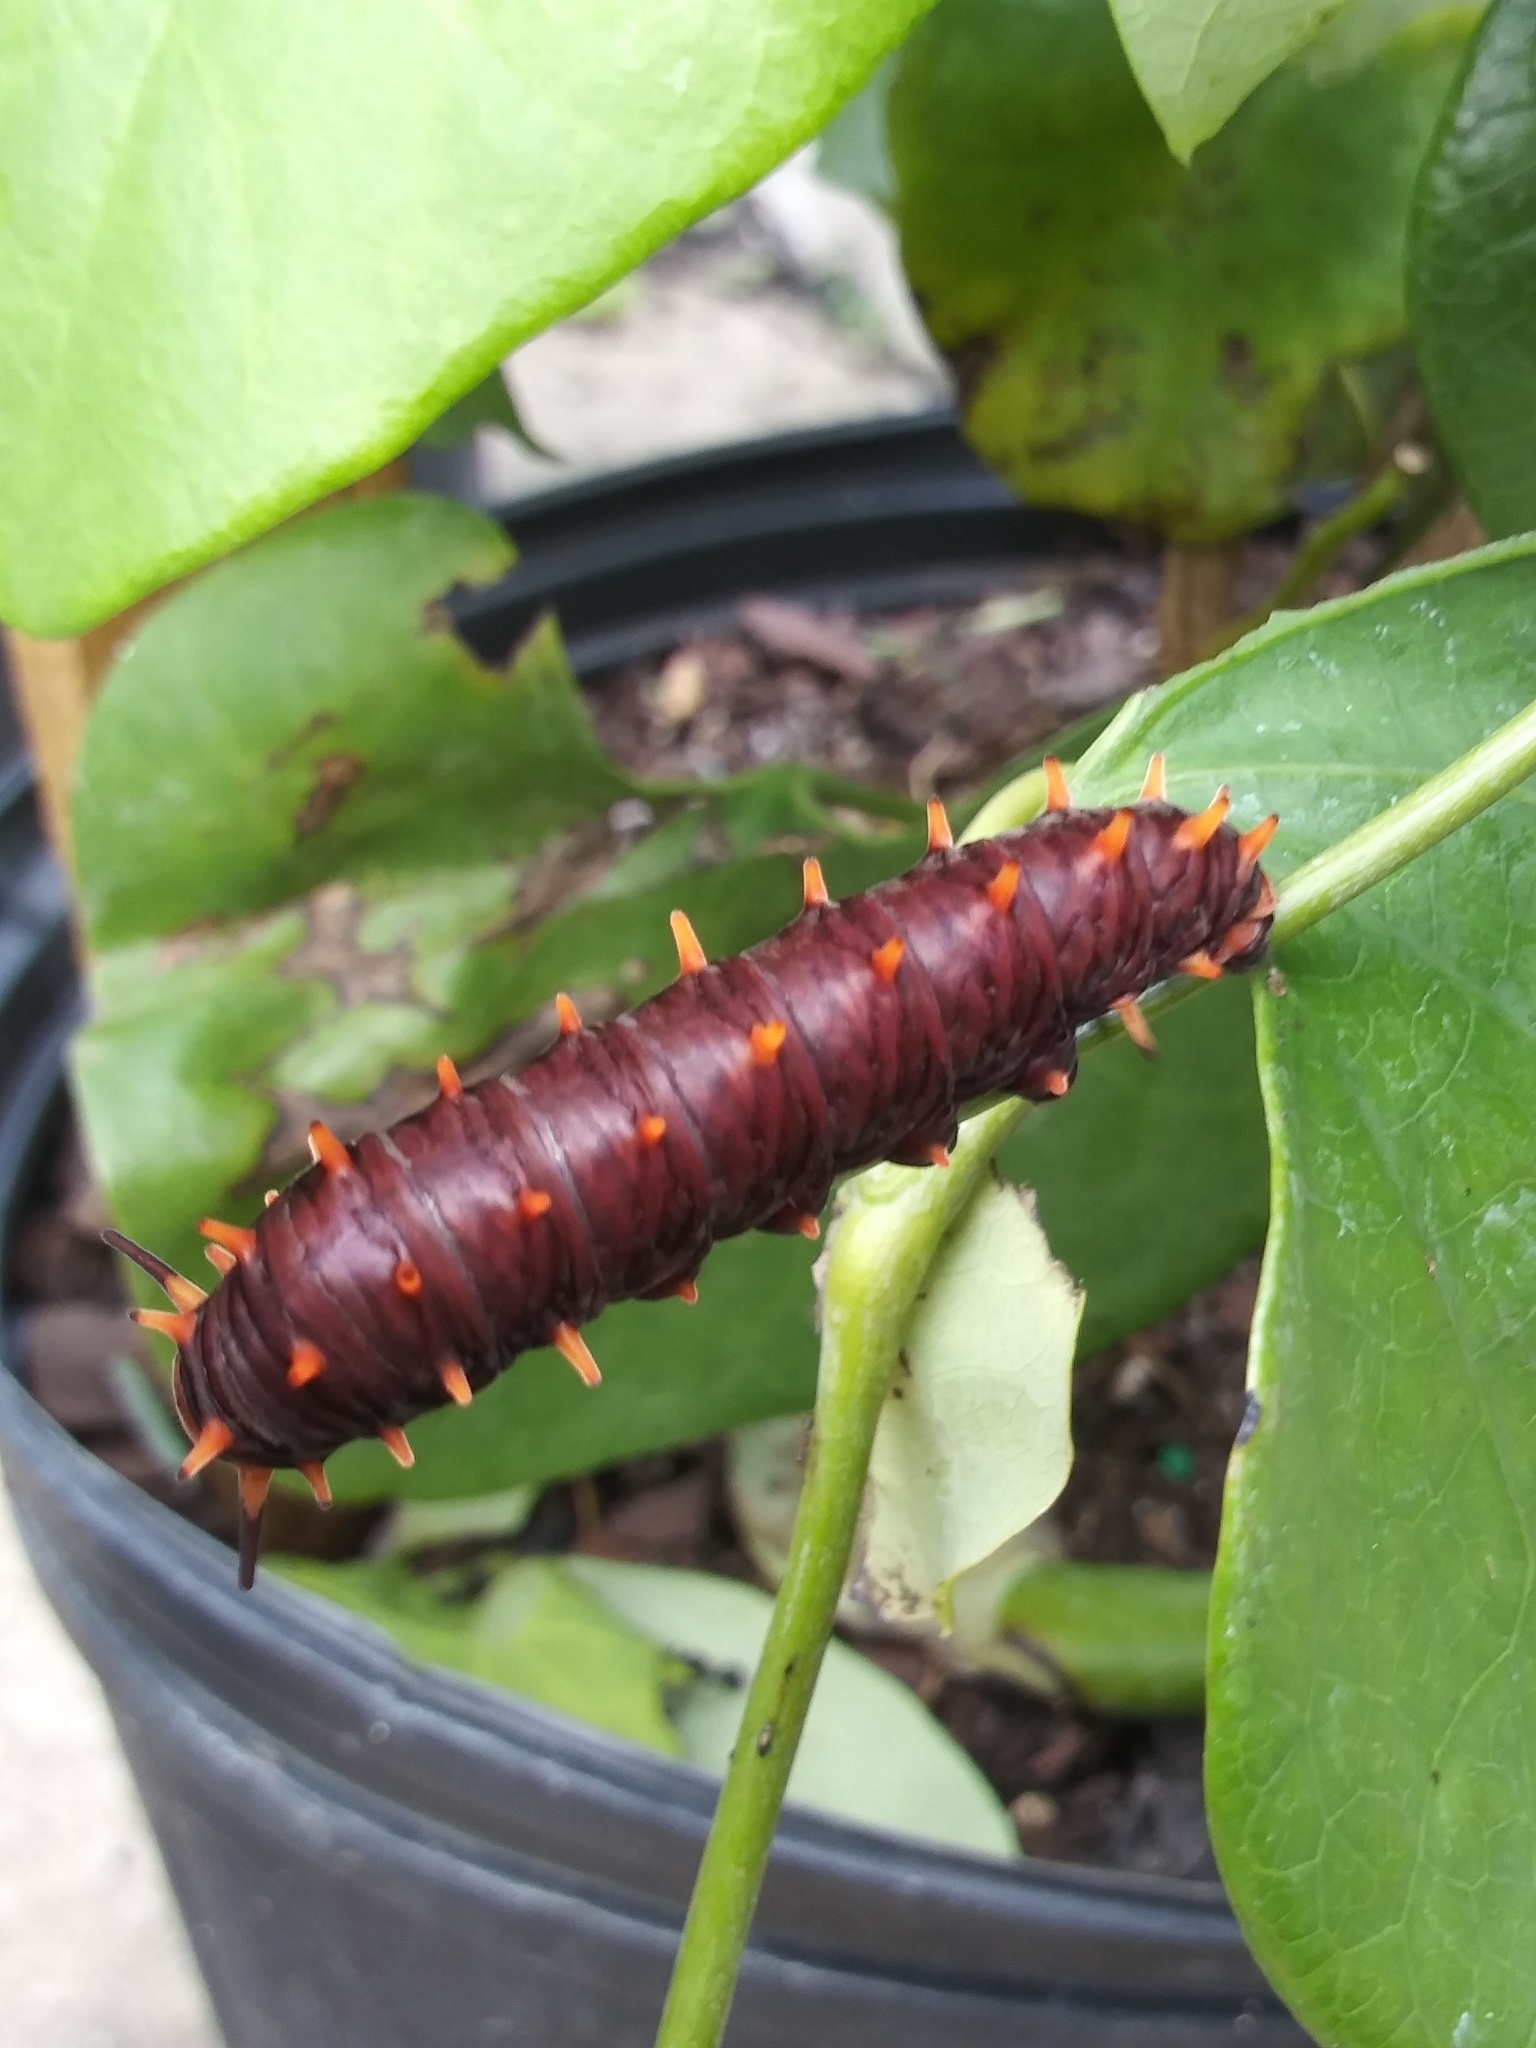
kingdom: Animalia
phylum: Arthropoda
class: Insecta
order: Lepidoptera
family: Papilionidae
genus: Battus
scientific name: Battus polydamas
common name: Polydamas swallowtail
